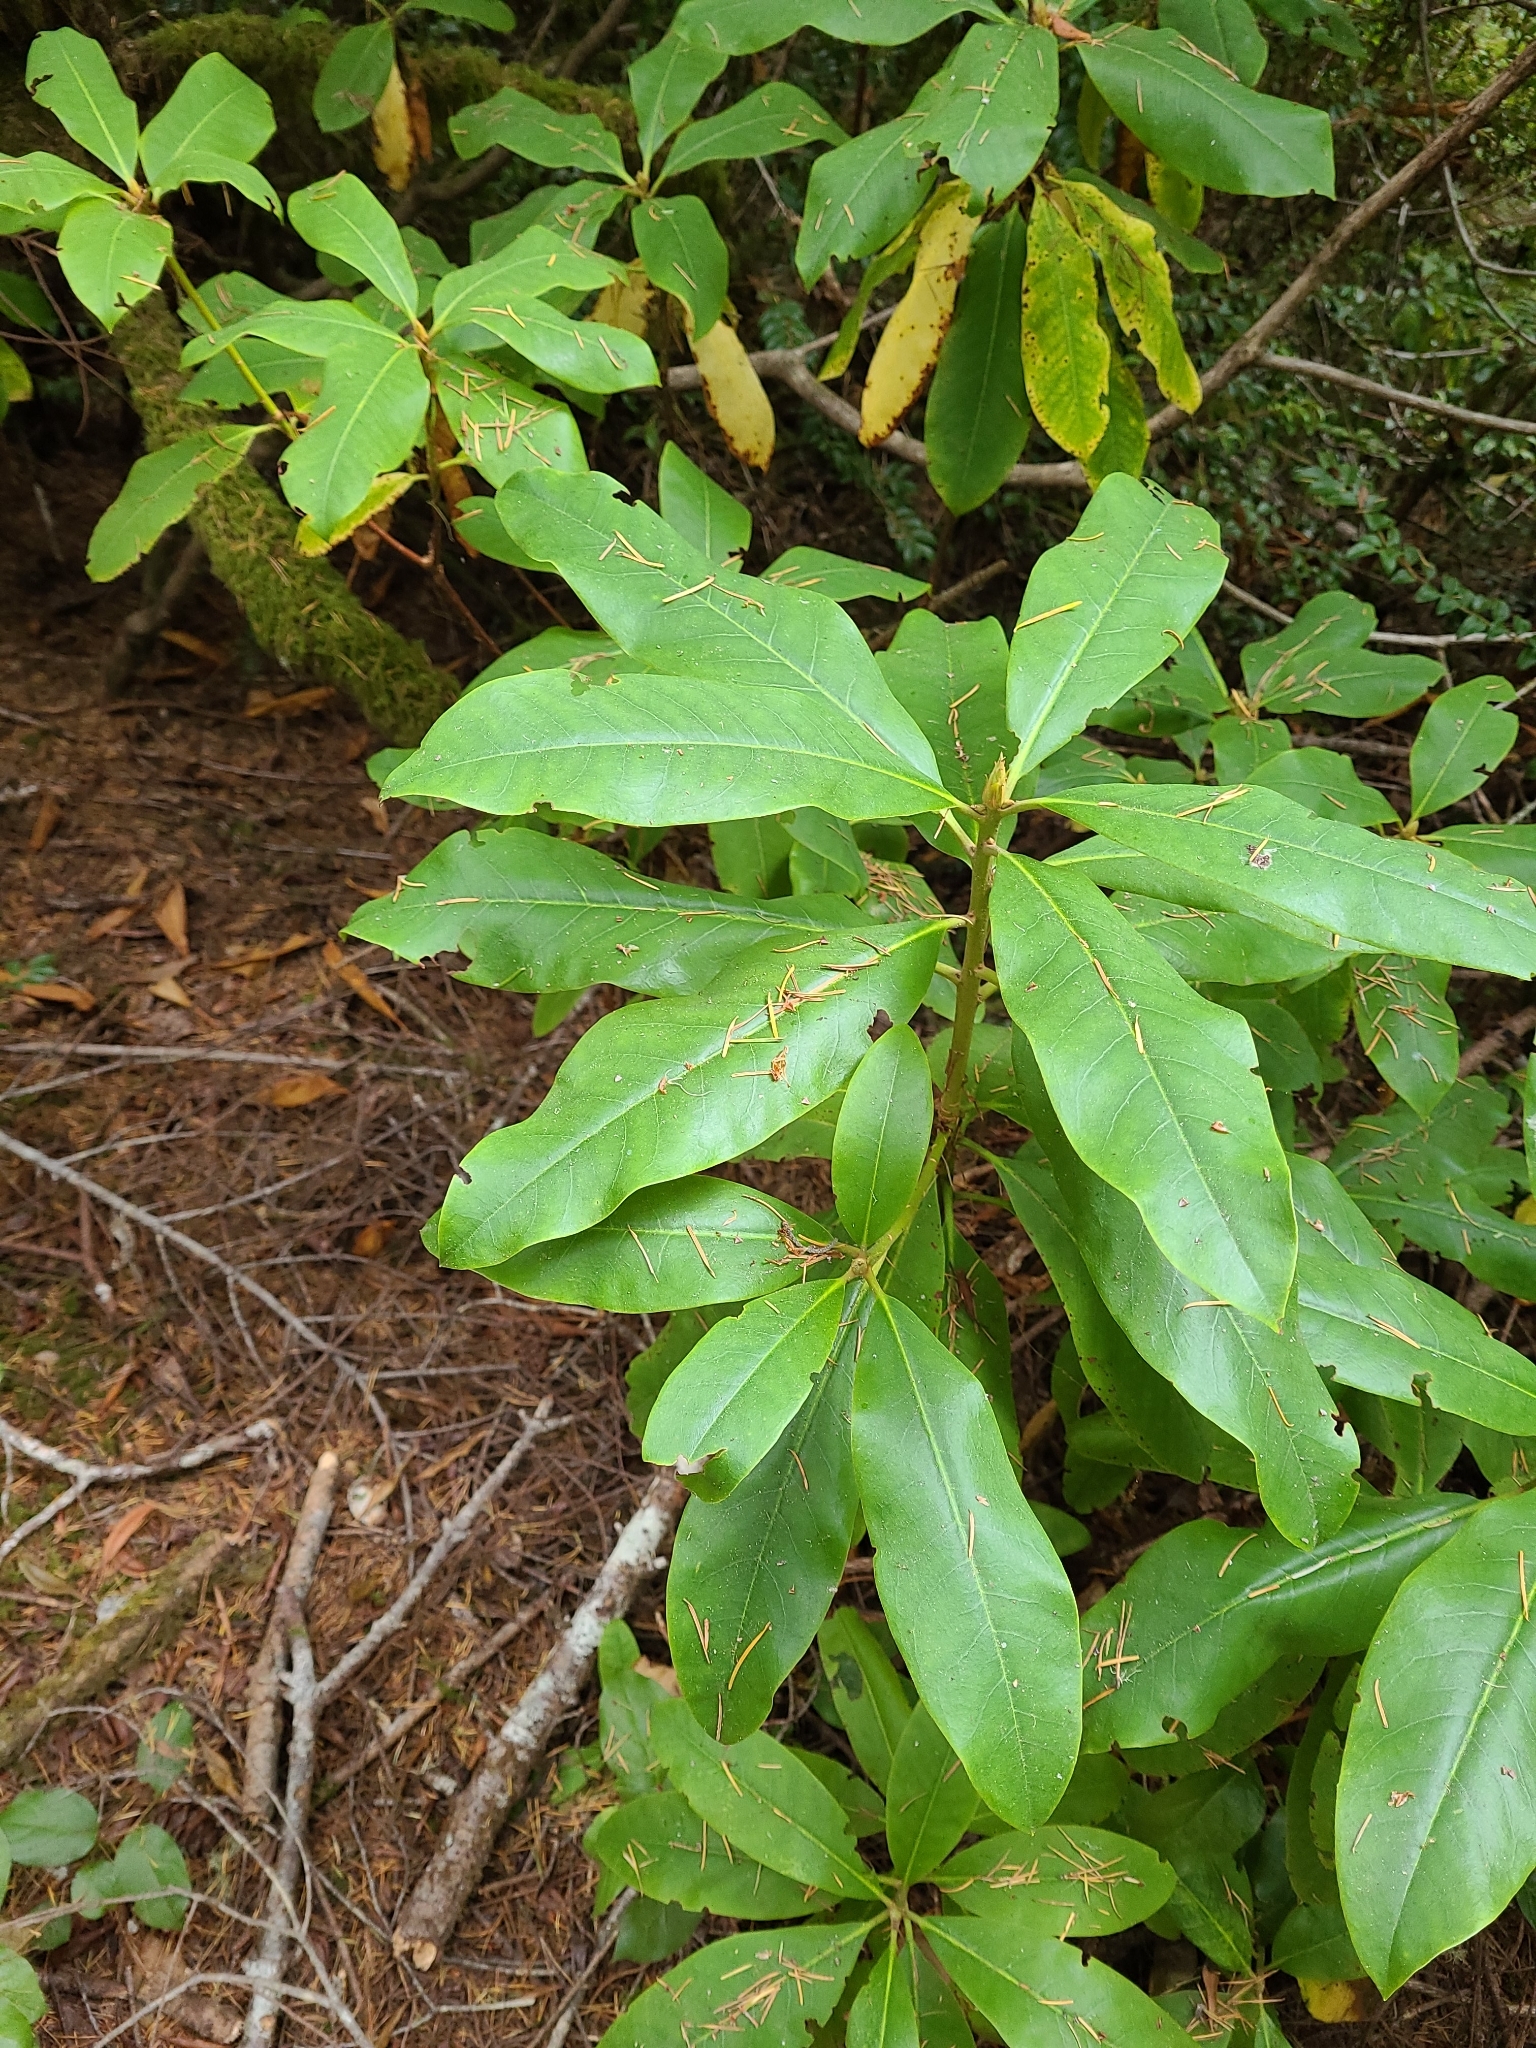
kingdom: Plantae
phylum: Tracheophyta
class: Magnoliopsida
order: Ericales
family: Ericaceae
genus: Rhododendron
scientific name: Rhododendron macrophyllum
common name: California rose bay
